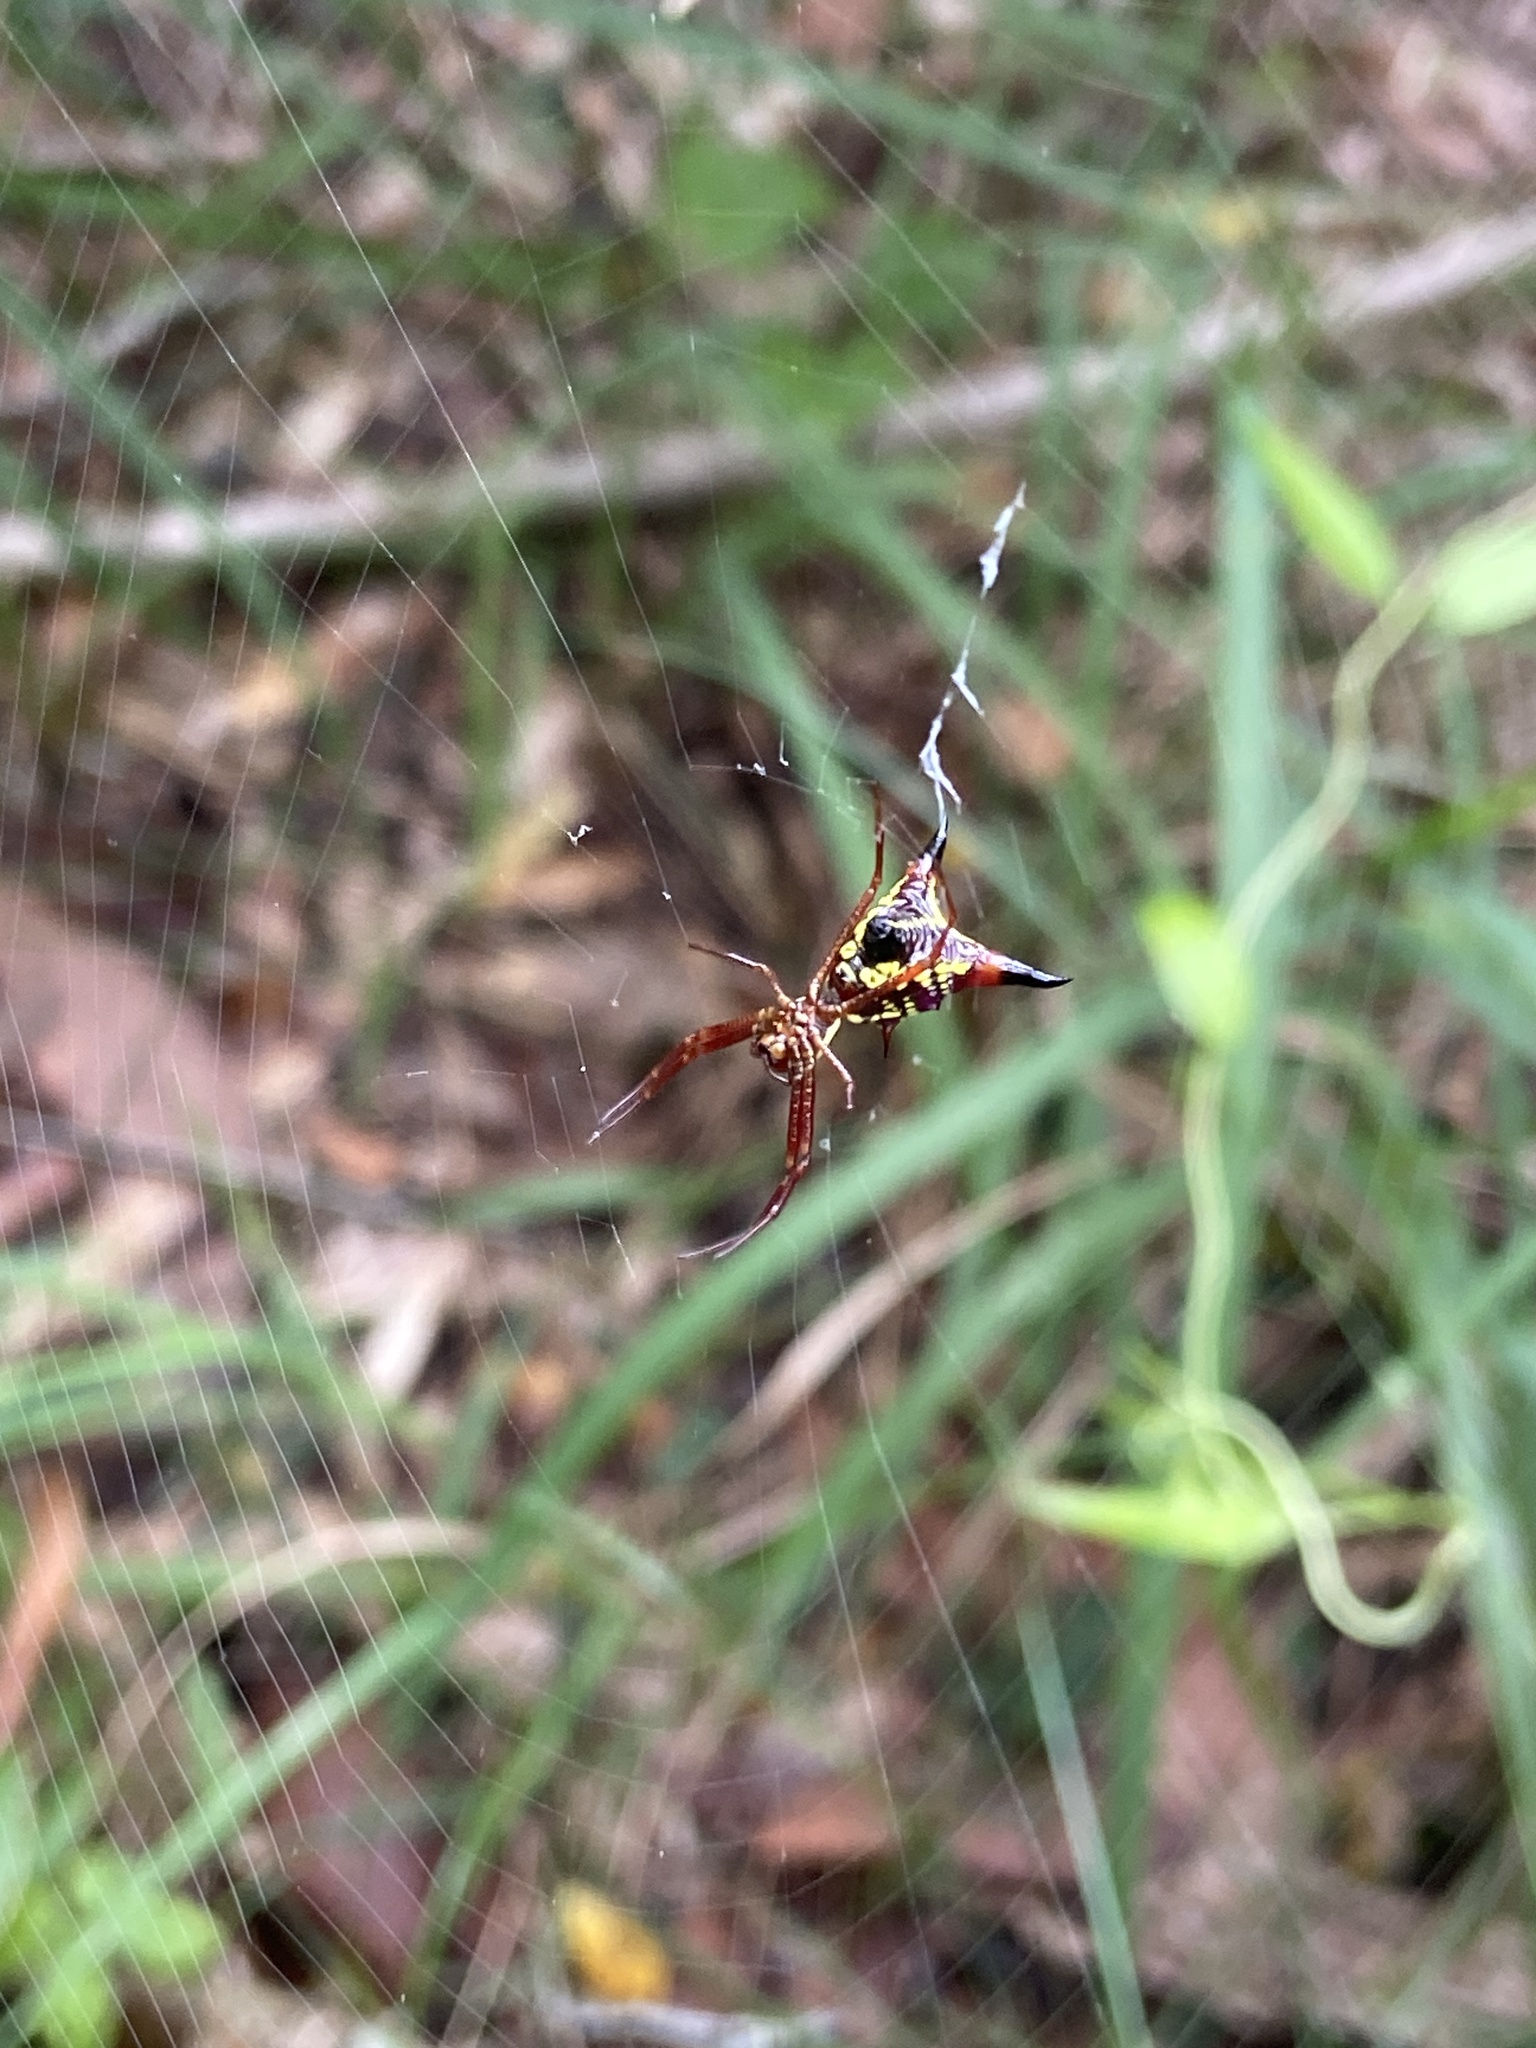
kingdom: Animalia
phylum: Arthropoda
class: Arachnida
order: Araneae
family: Araneidae
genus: Micrathena
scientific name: Micrathena sagittata
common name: Orb weavers
